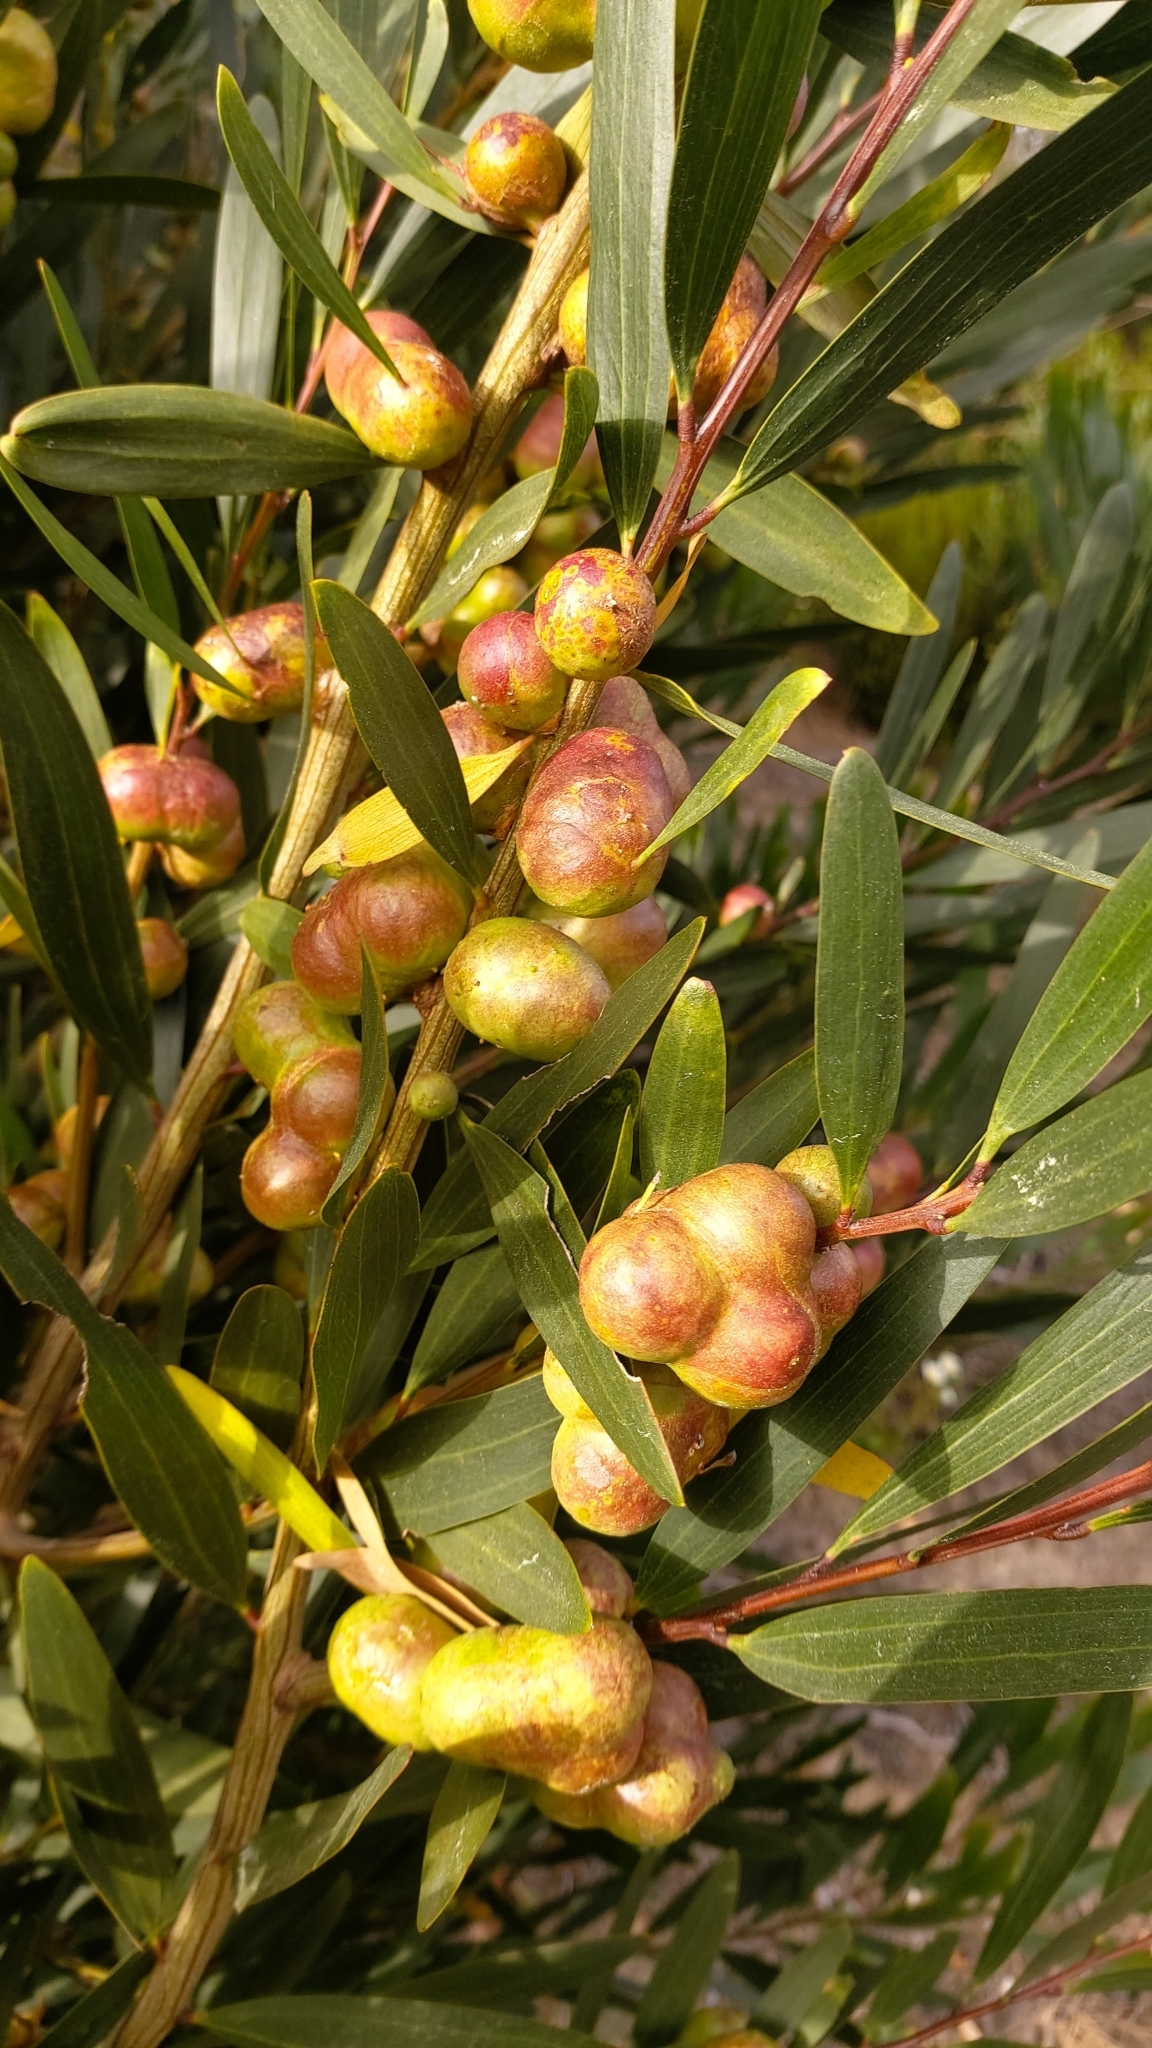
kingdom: Animalia
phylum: Arthropoda
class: Insecta
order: Hymenoptera
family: Pteromalidae
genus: Trichilogaster
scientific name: Trichilogaster acaciaelongifoliae
